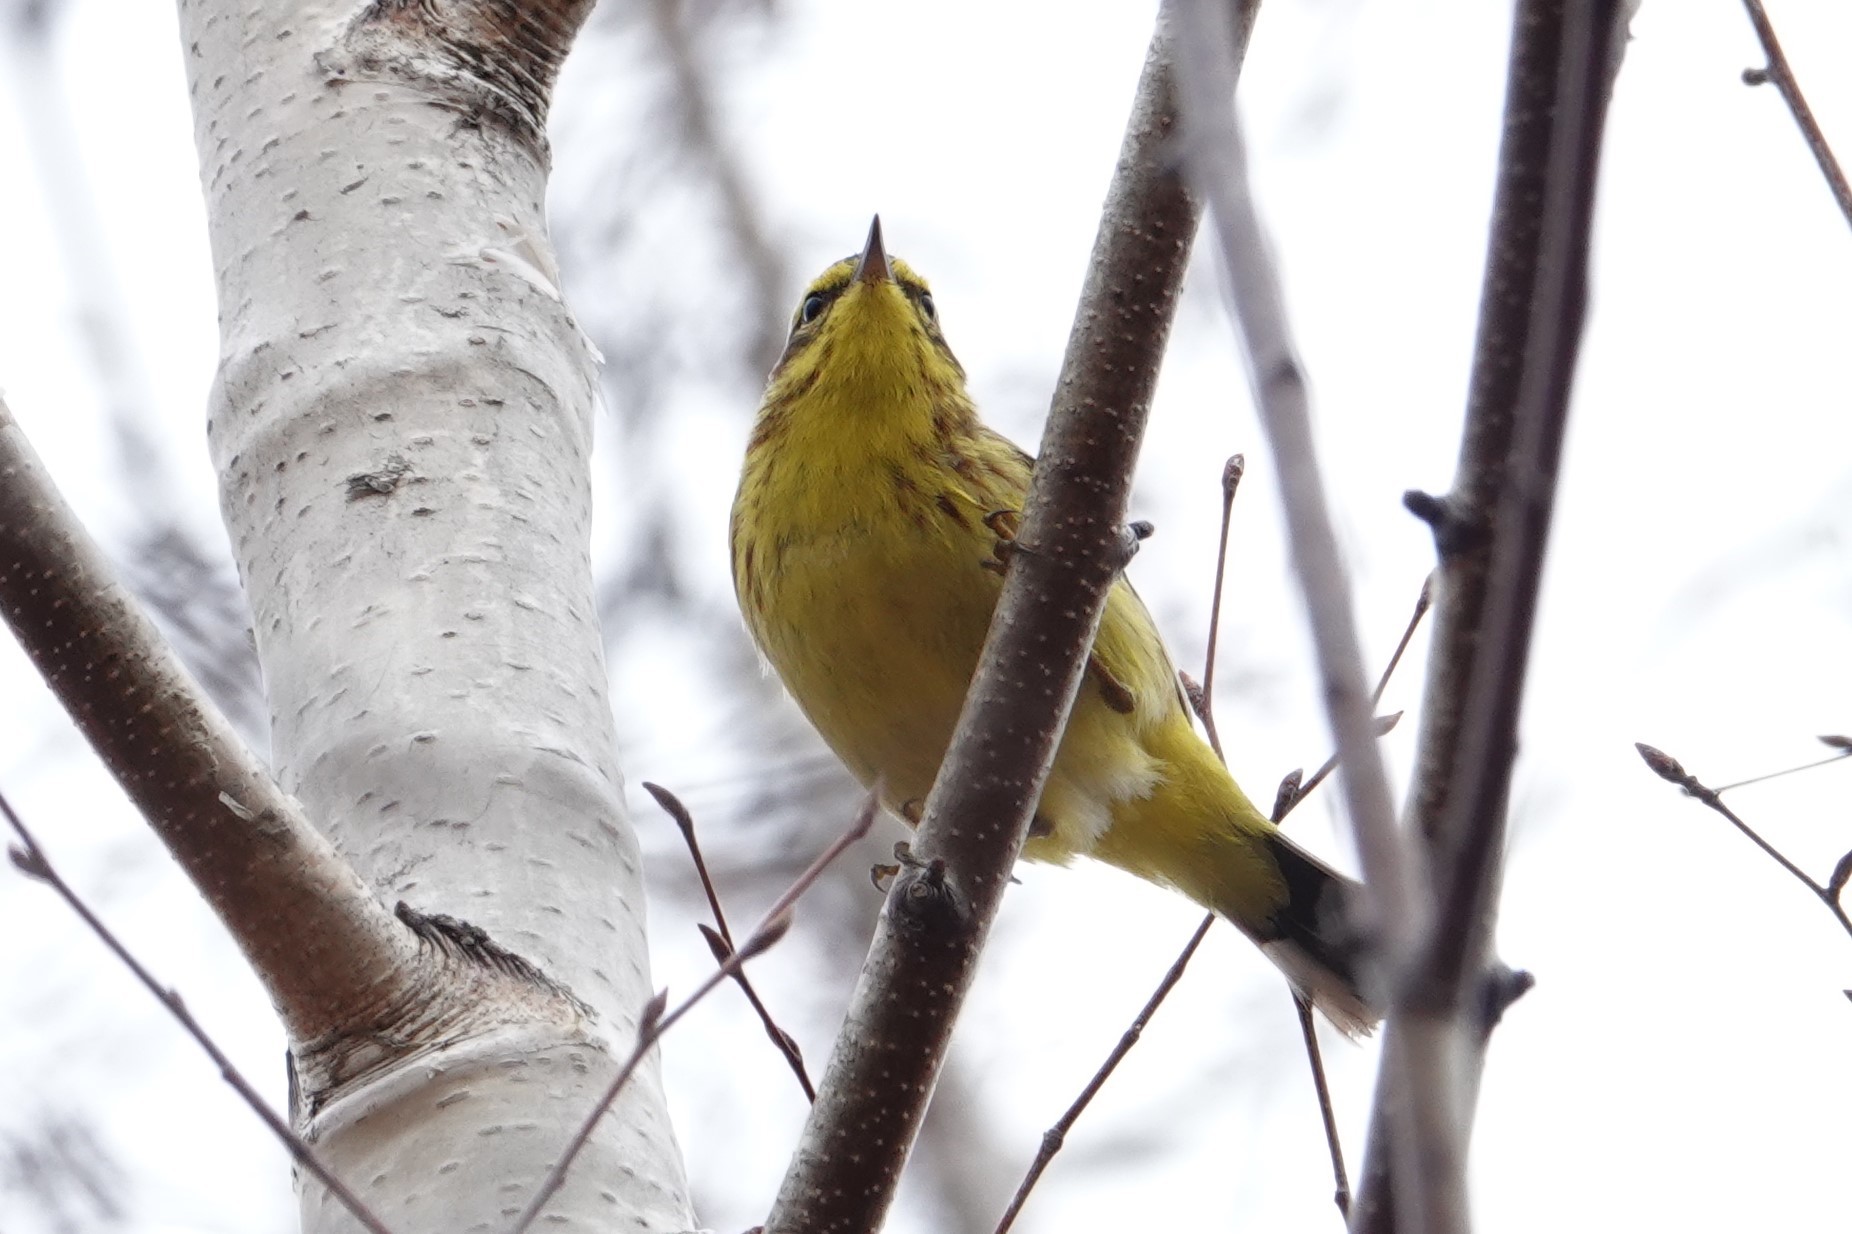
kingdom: Animalia
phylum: Chordata
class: Aves
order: Passeriformes
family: Parulidae
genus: Setophaga
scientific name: Setophaga palmarum
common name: Palm warbler
